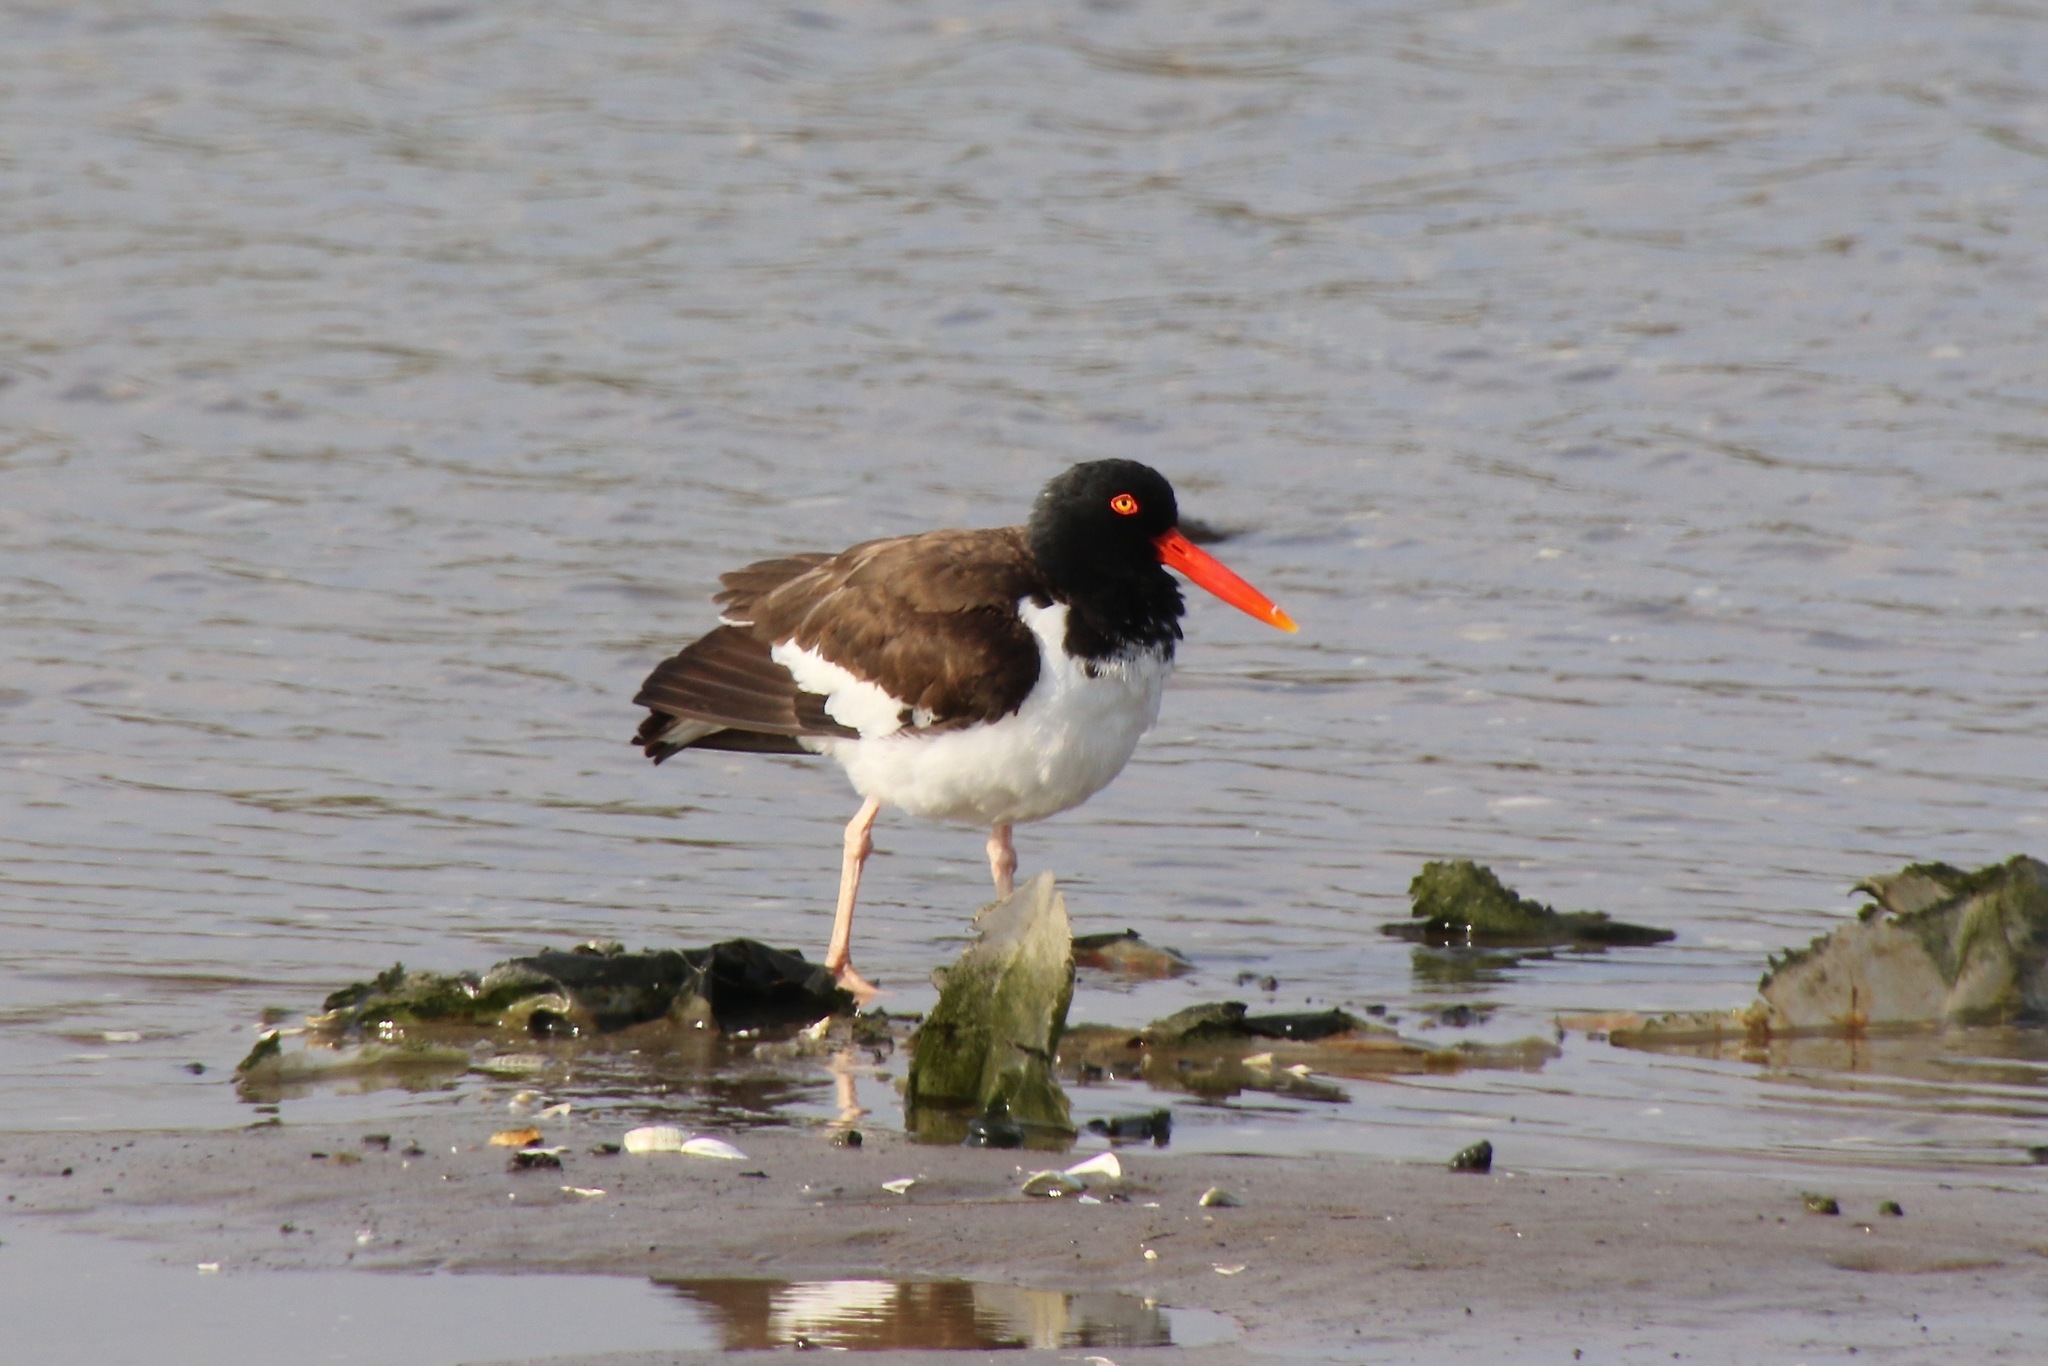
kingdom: Animalia
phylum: Chordata
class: Aves
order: Charadriiformes
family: Haematopodidae
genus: Haematopus
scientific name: Haematopus palliatus
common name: American oystercatcher
